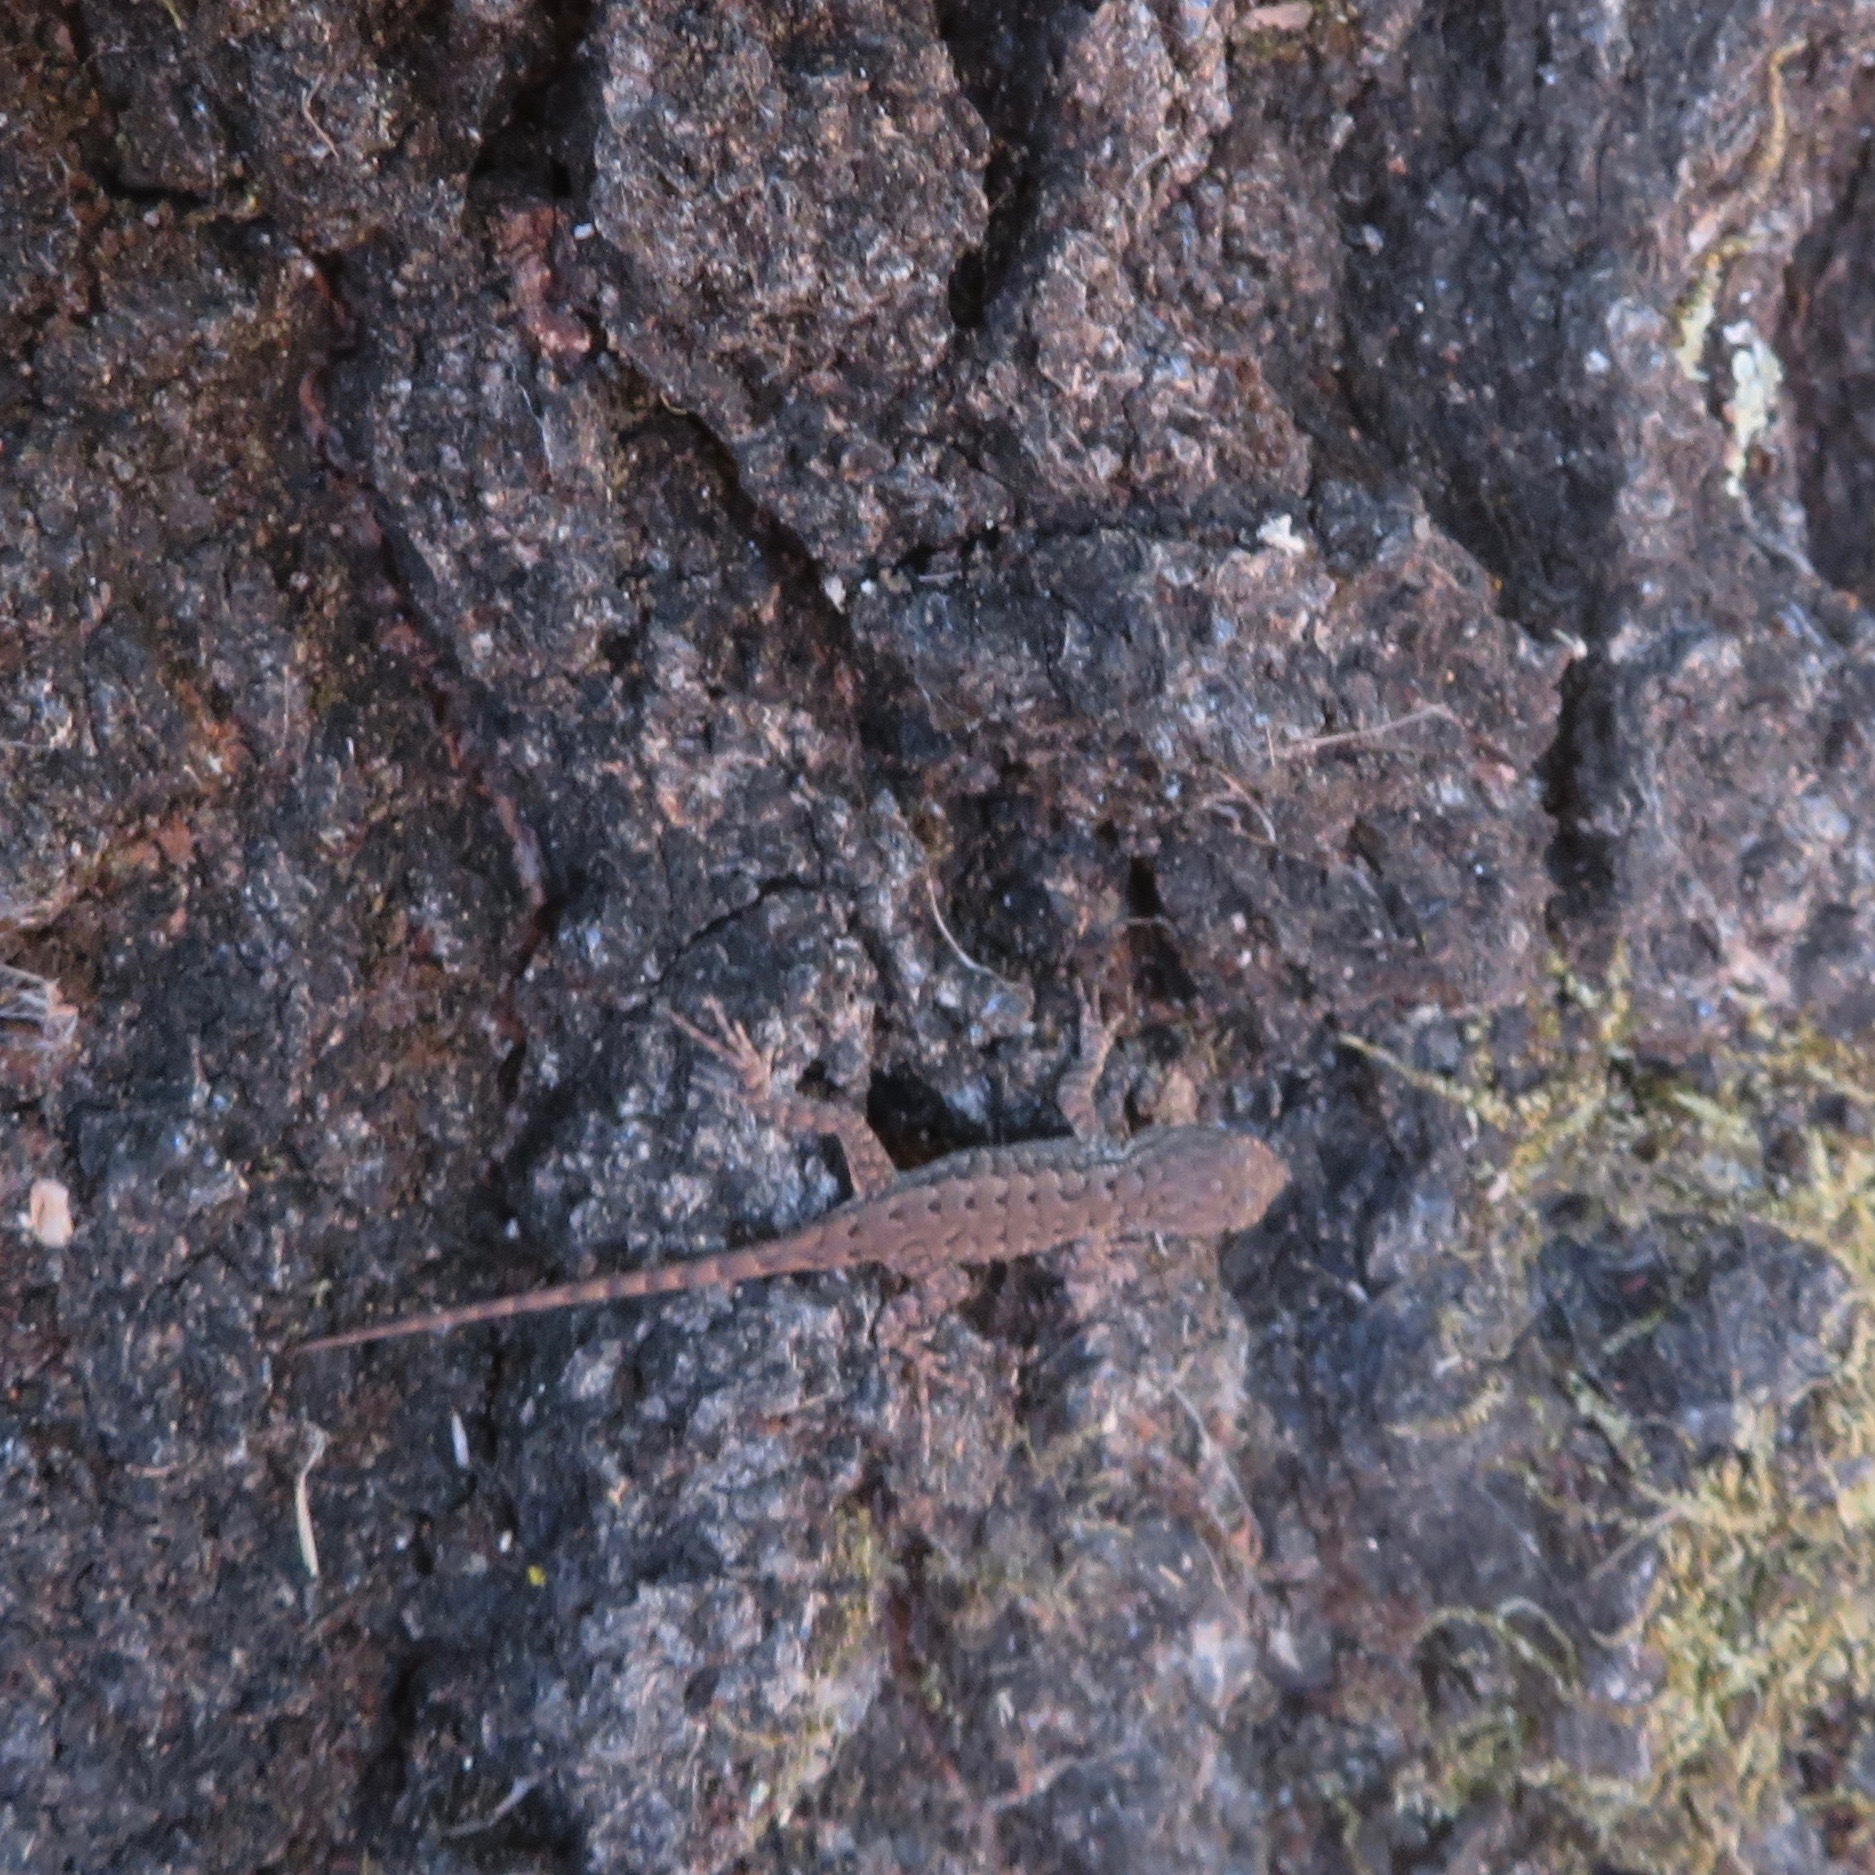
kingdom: Animalia
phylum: Chordata
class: Squamata
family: Phrynosomatidae
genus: Sceloporus
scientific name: Sceloporus occidentalis
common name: Western fence lizard
